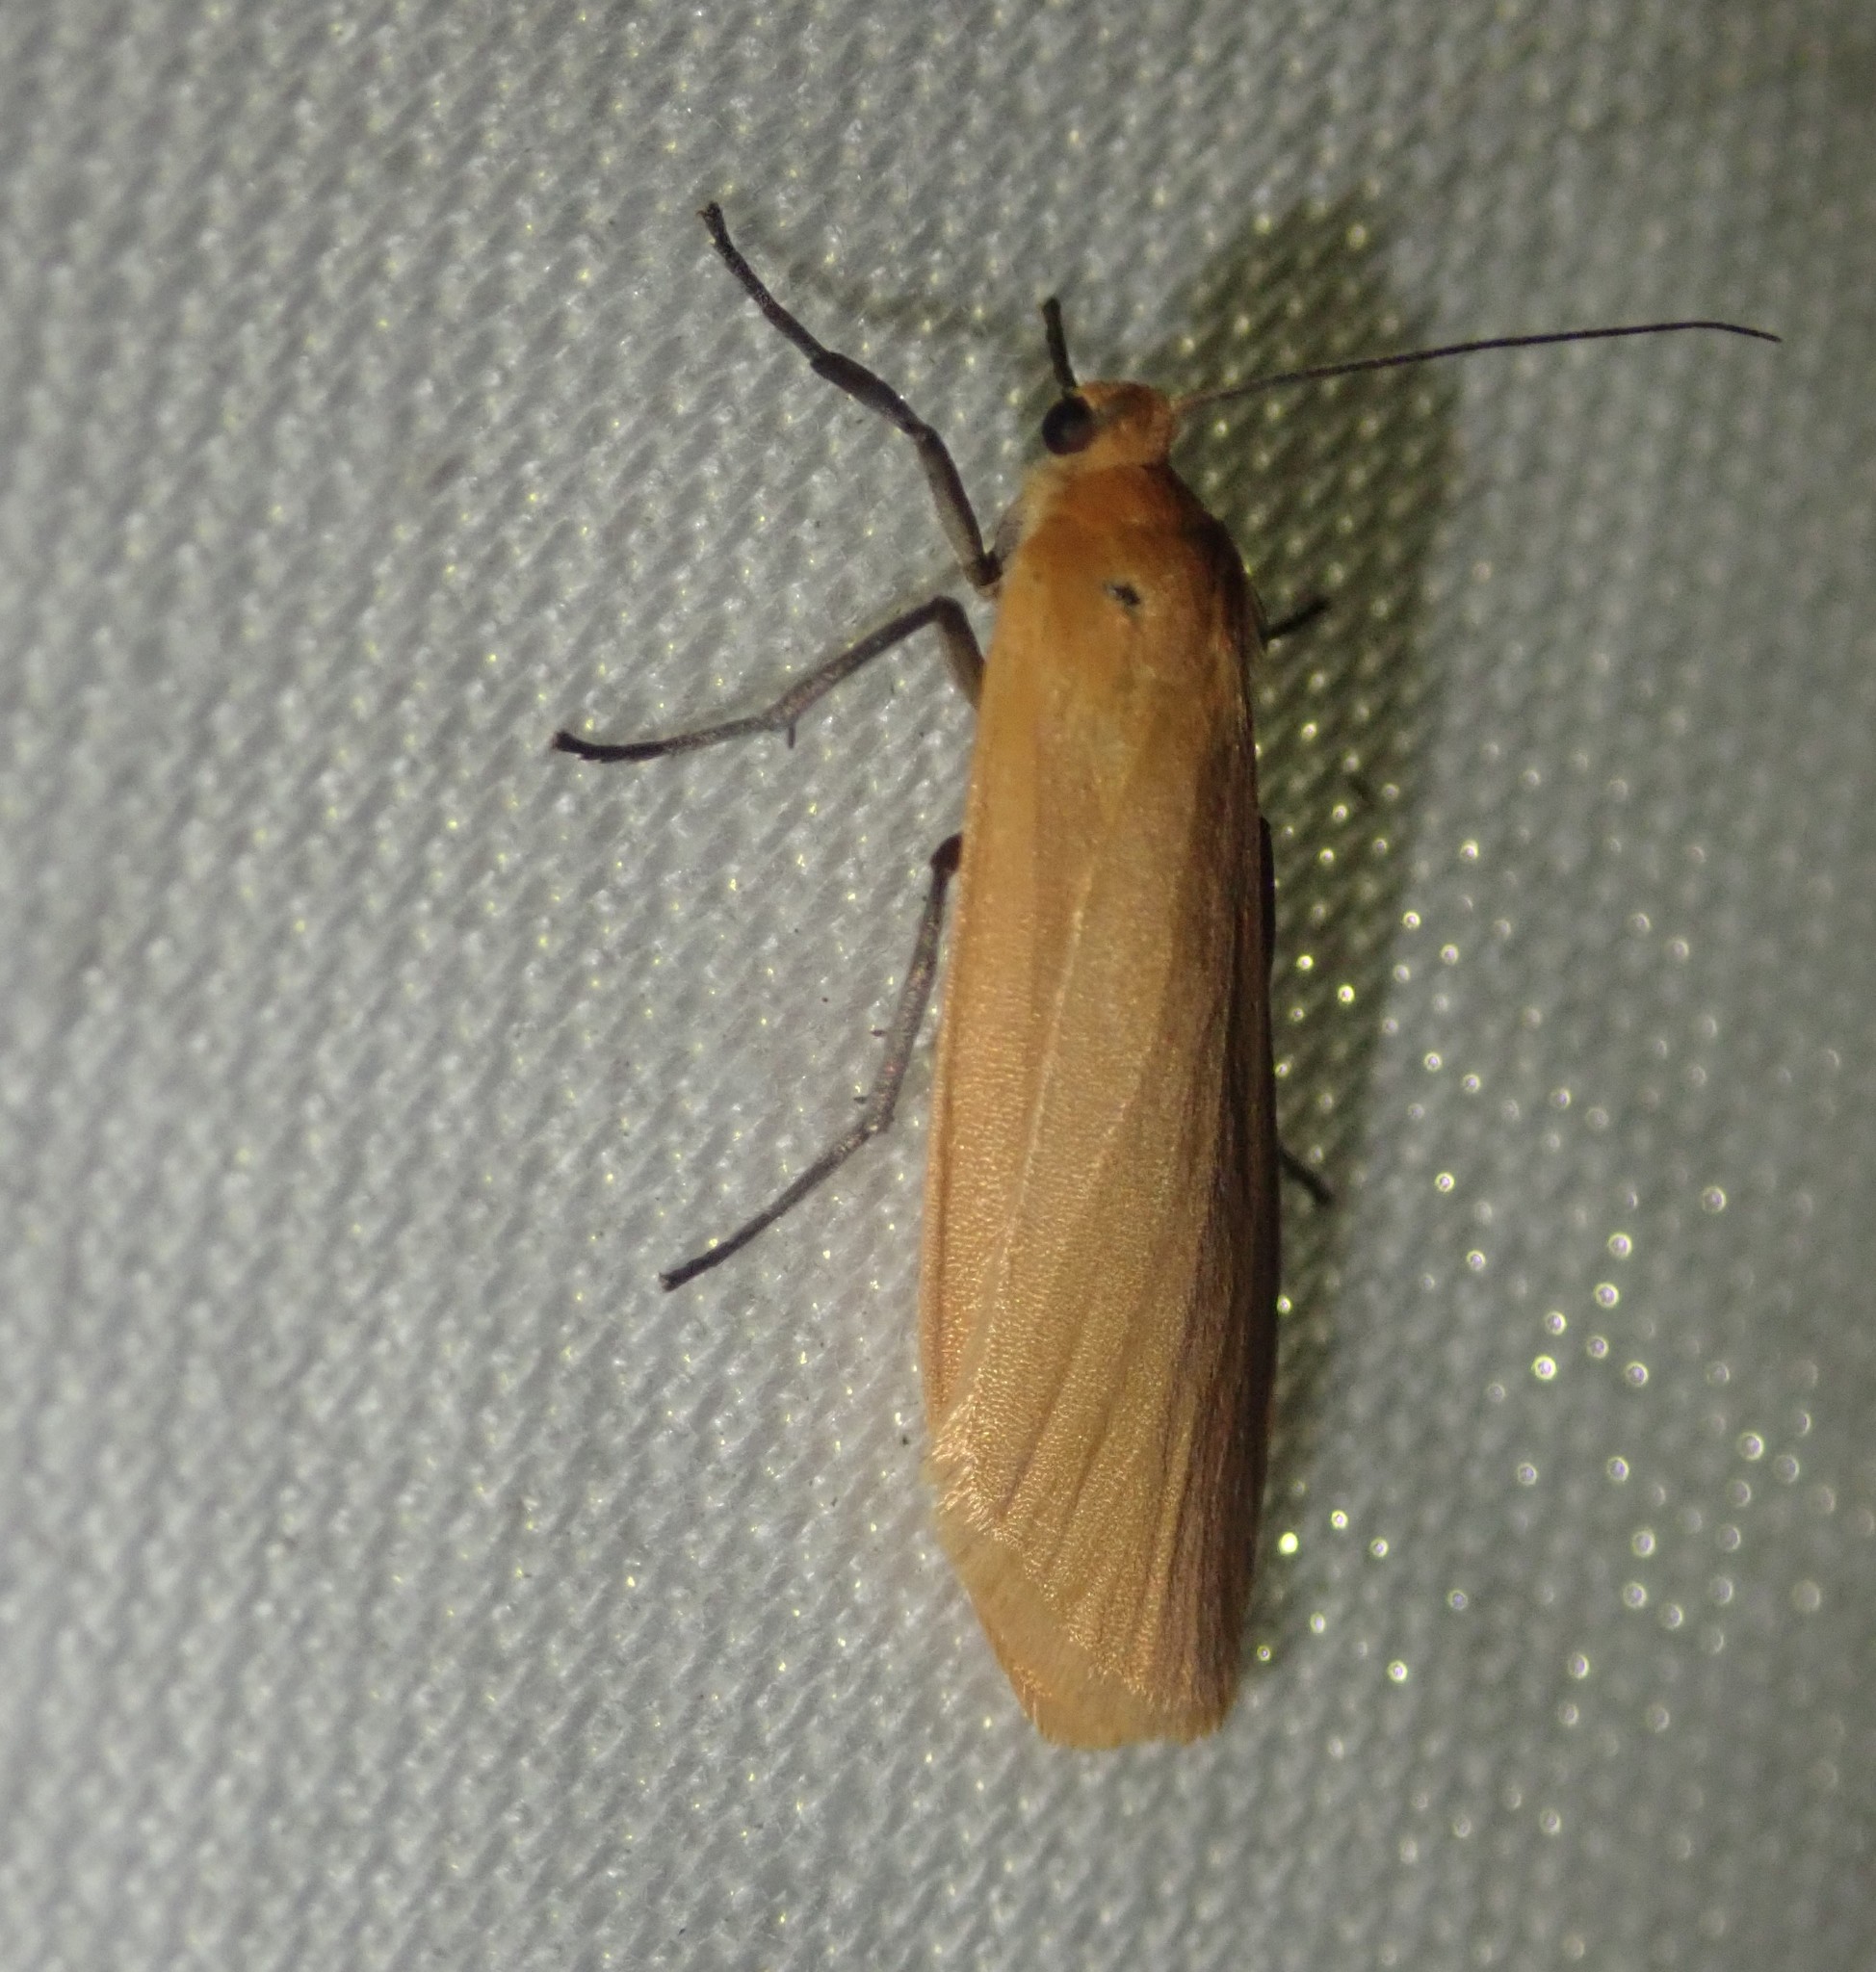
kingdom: Animalia
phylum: Arthropoda
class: Insecta
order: Lepidoptera
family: Erebidae
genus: Wittia
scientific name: Wittia sororcula
